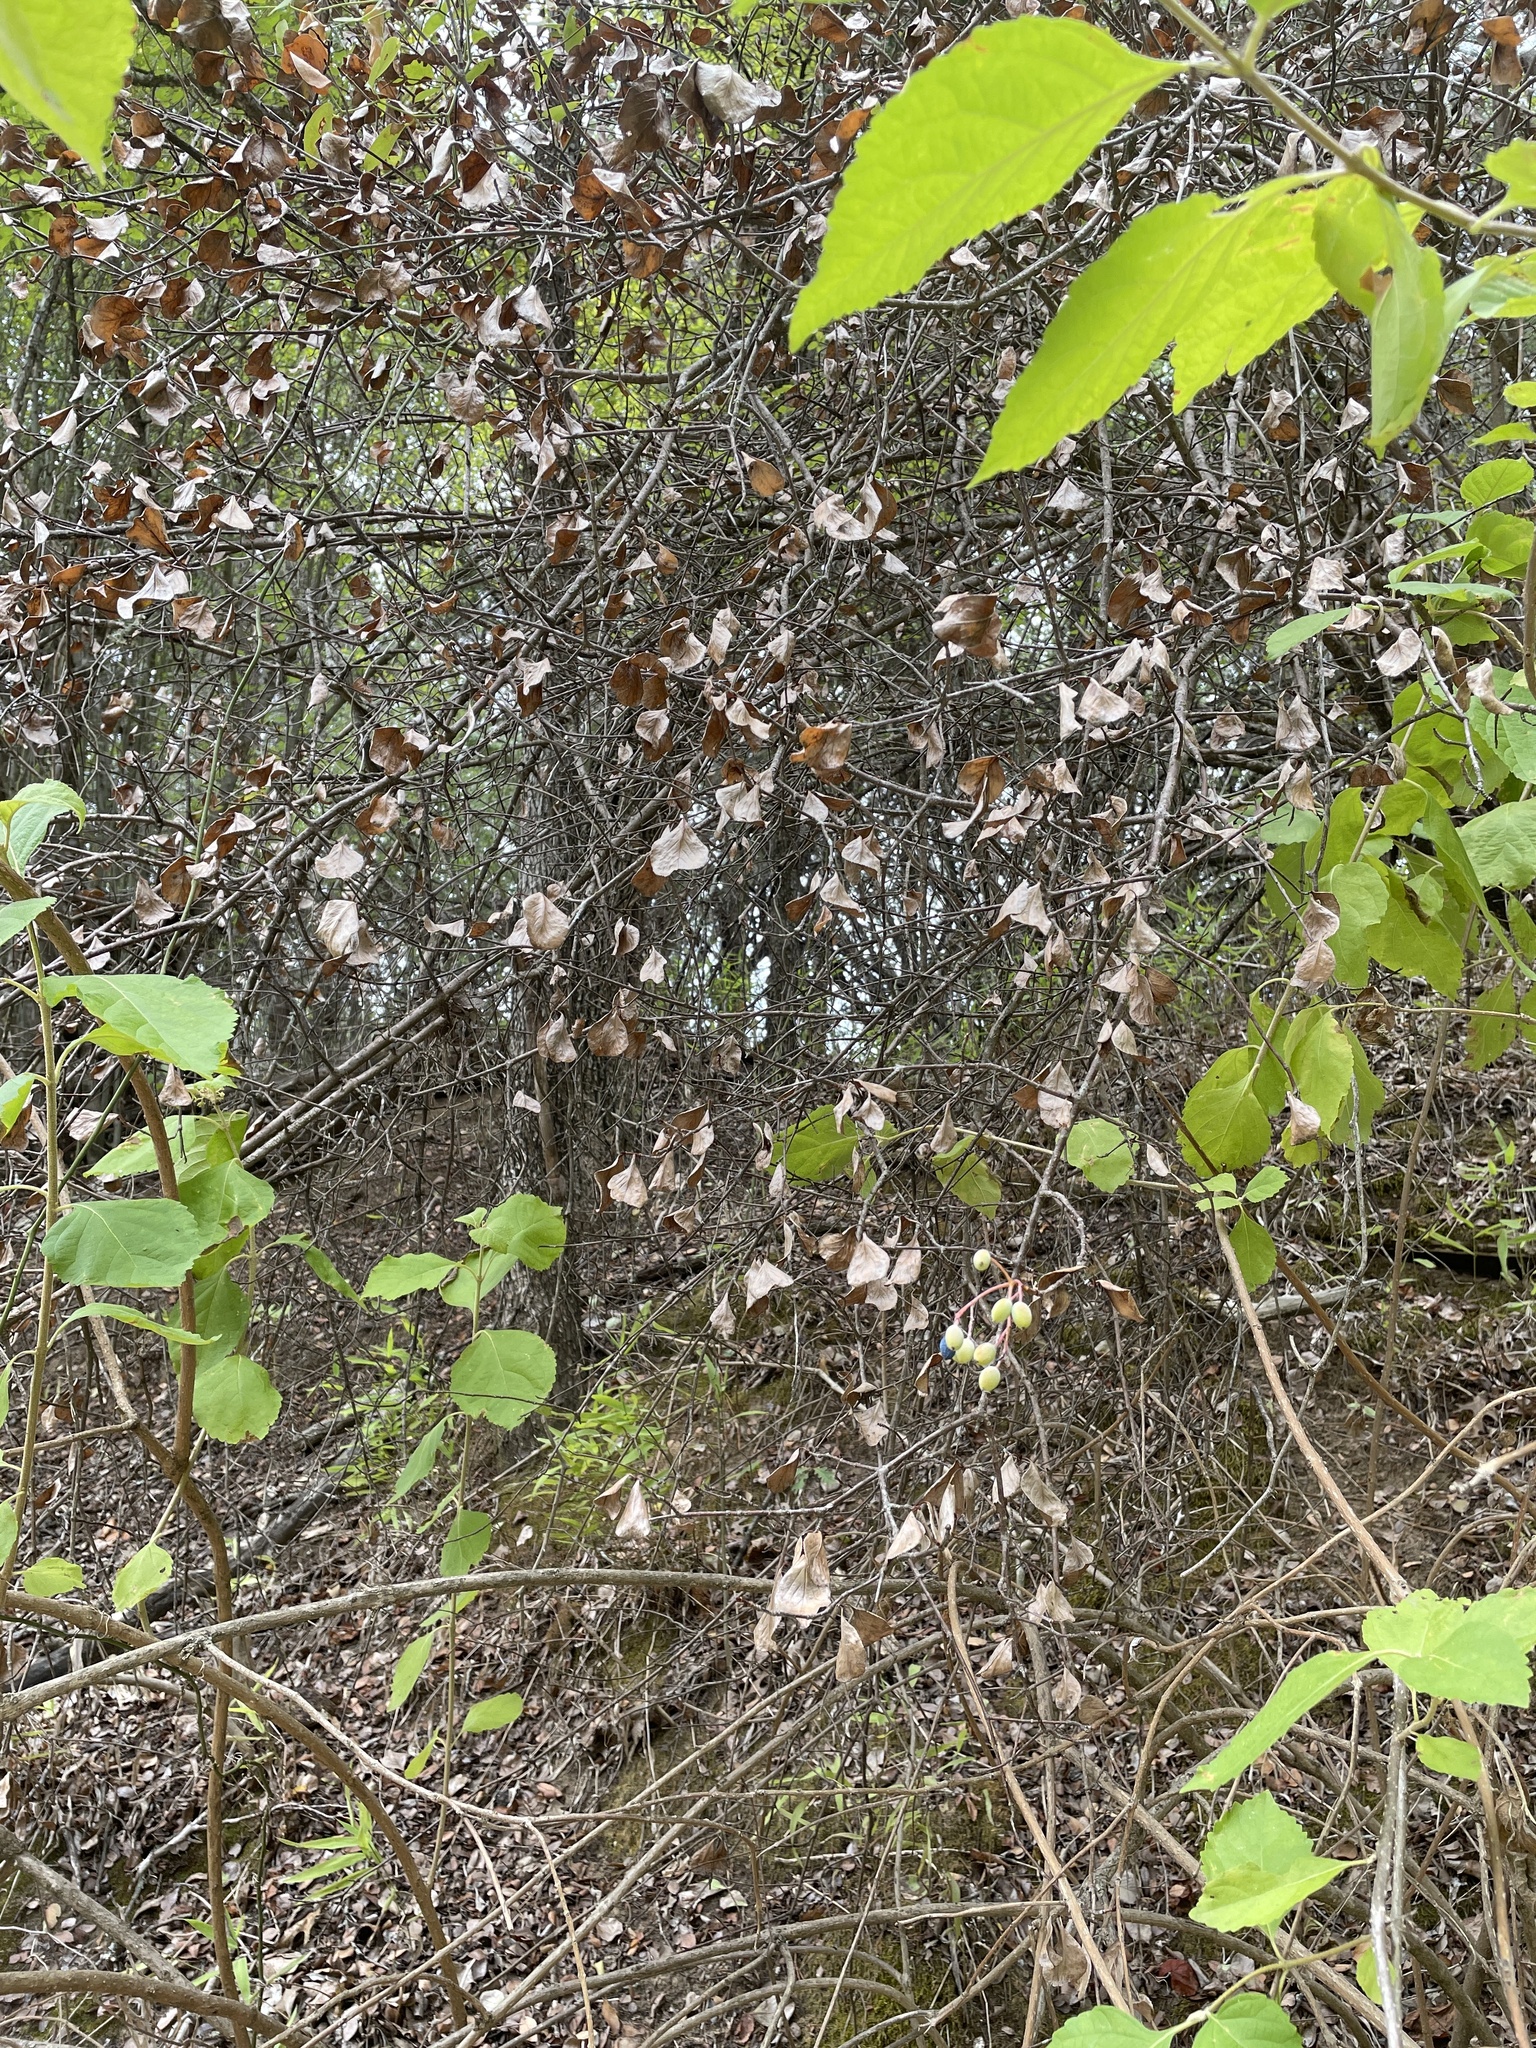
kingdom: Plantae
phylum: Tracheophyta
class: Magnoliopsida
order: Dipsacales
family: Viburnaceae
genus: Viburnum
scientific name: Viburnum rufidulum
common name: Blue haw
